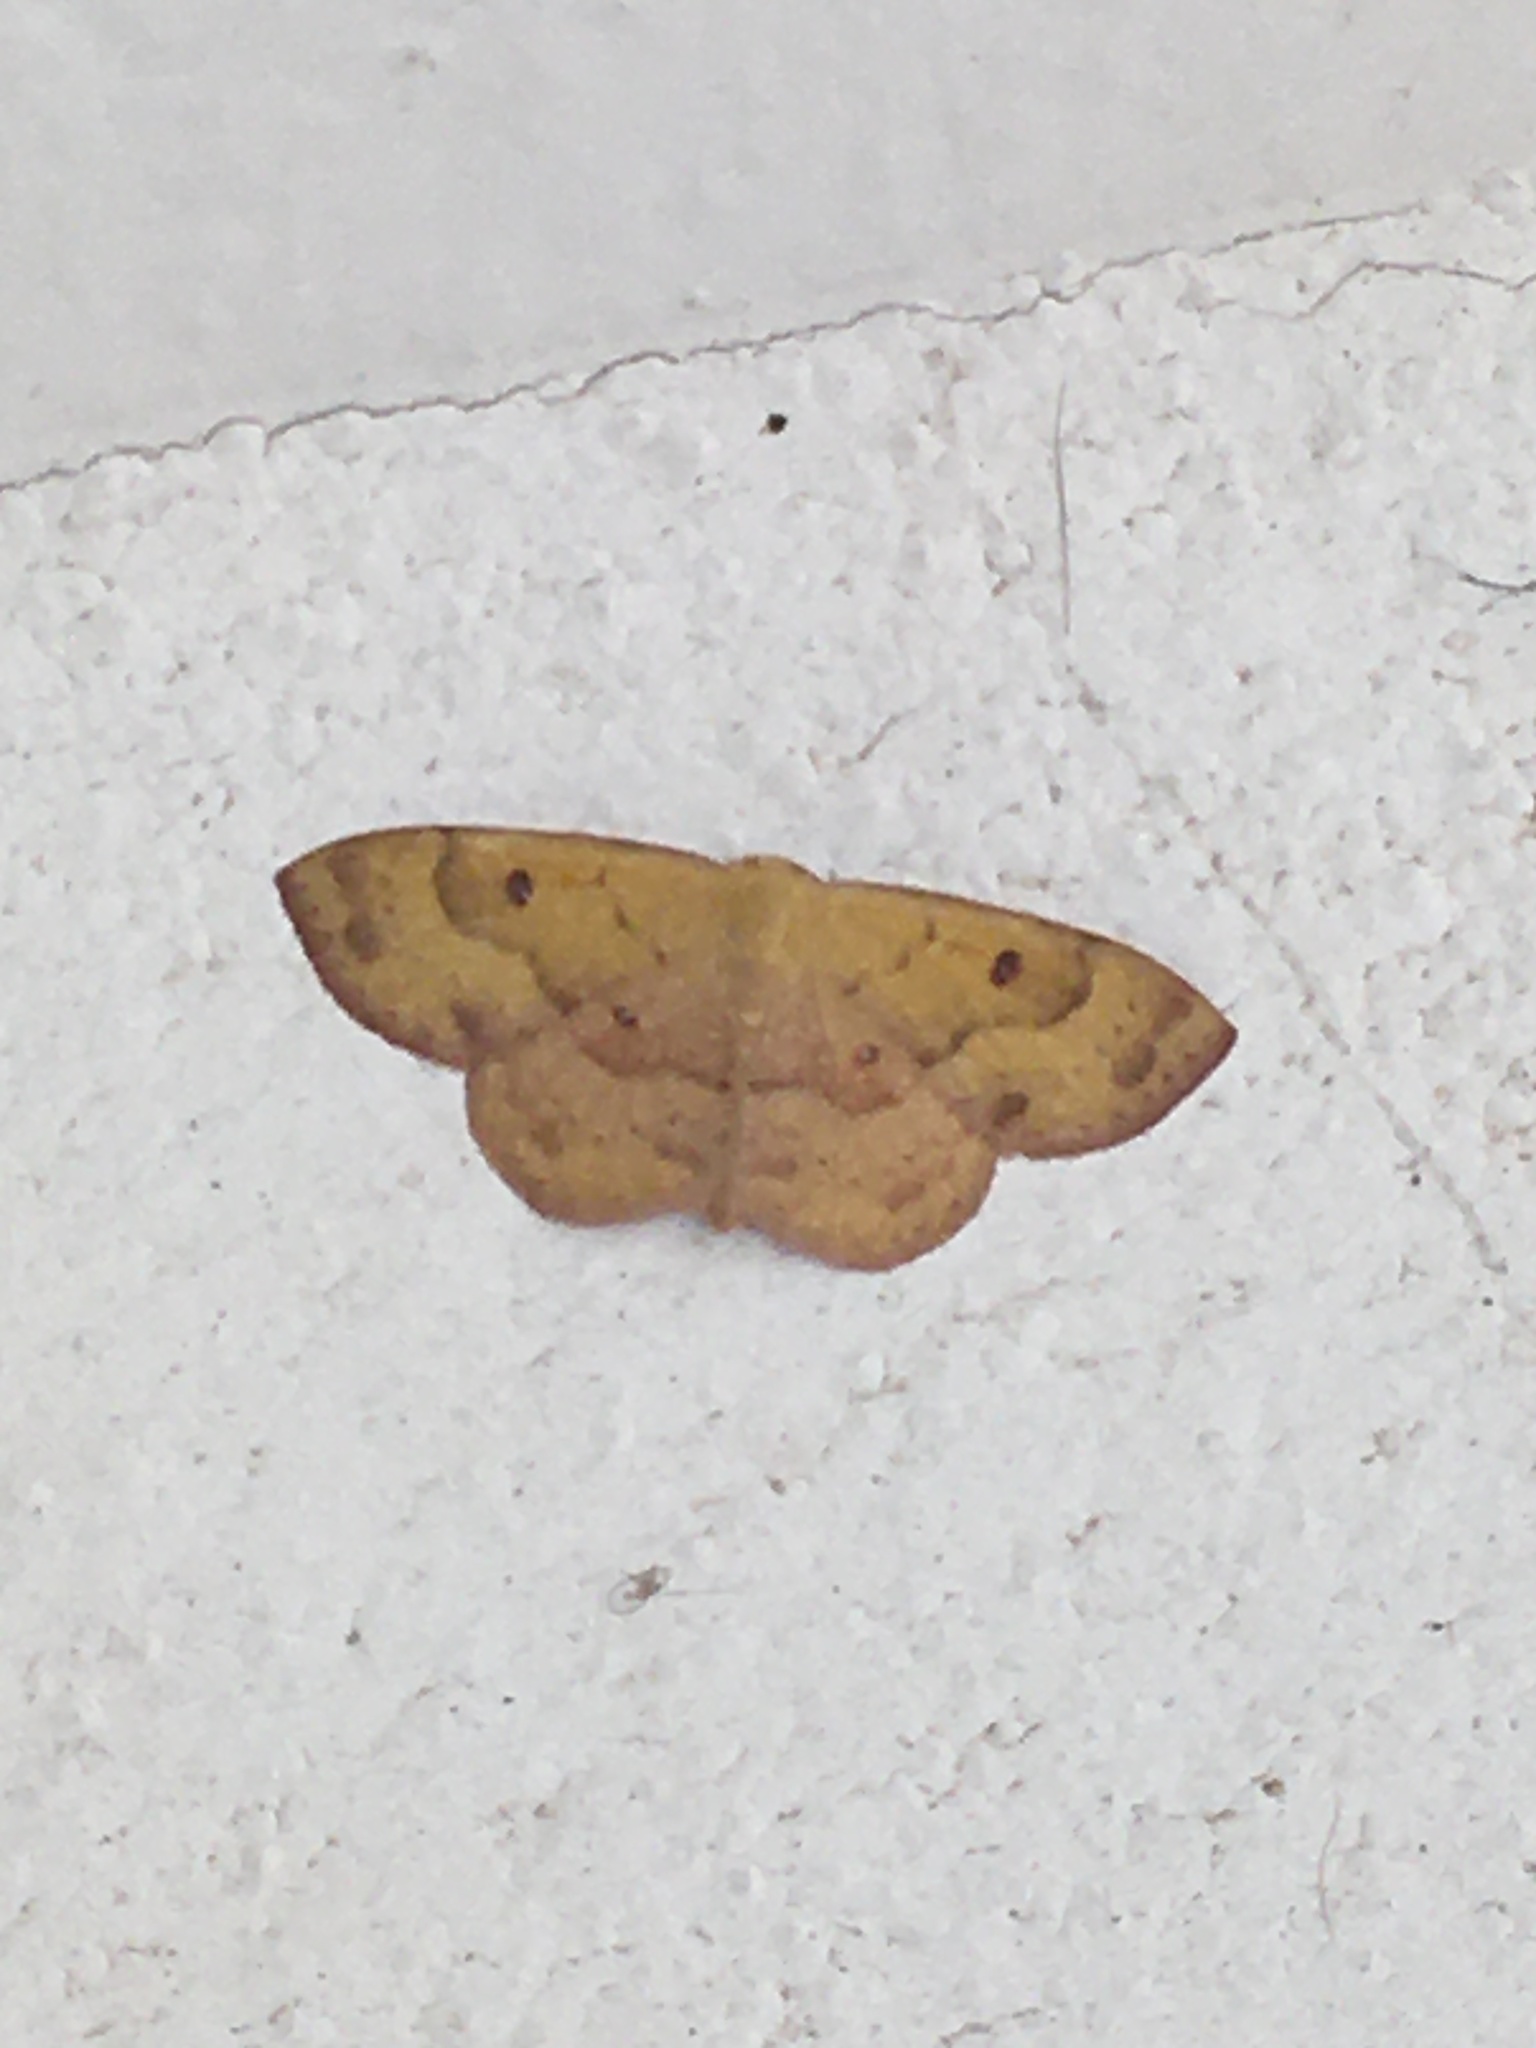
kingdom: Animalia
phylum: Arthropoda
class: Insecta
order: Lepidoptera
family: Geometridae
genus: Semaeopus
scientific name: Semaeopus ella
